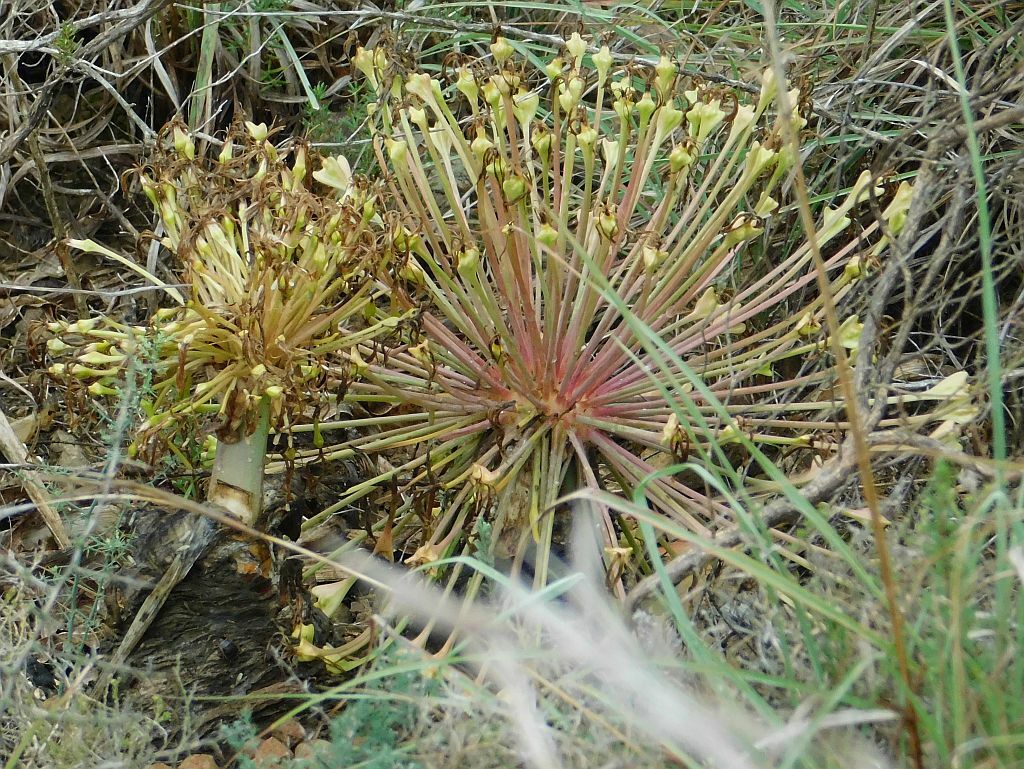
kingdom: Plantae
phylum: Tracheophyta
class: Liliopsida
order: Asparagales
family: Amaryllidaceae
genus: Boophone
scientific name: Boophone disticha
